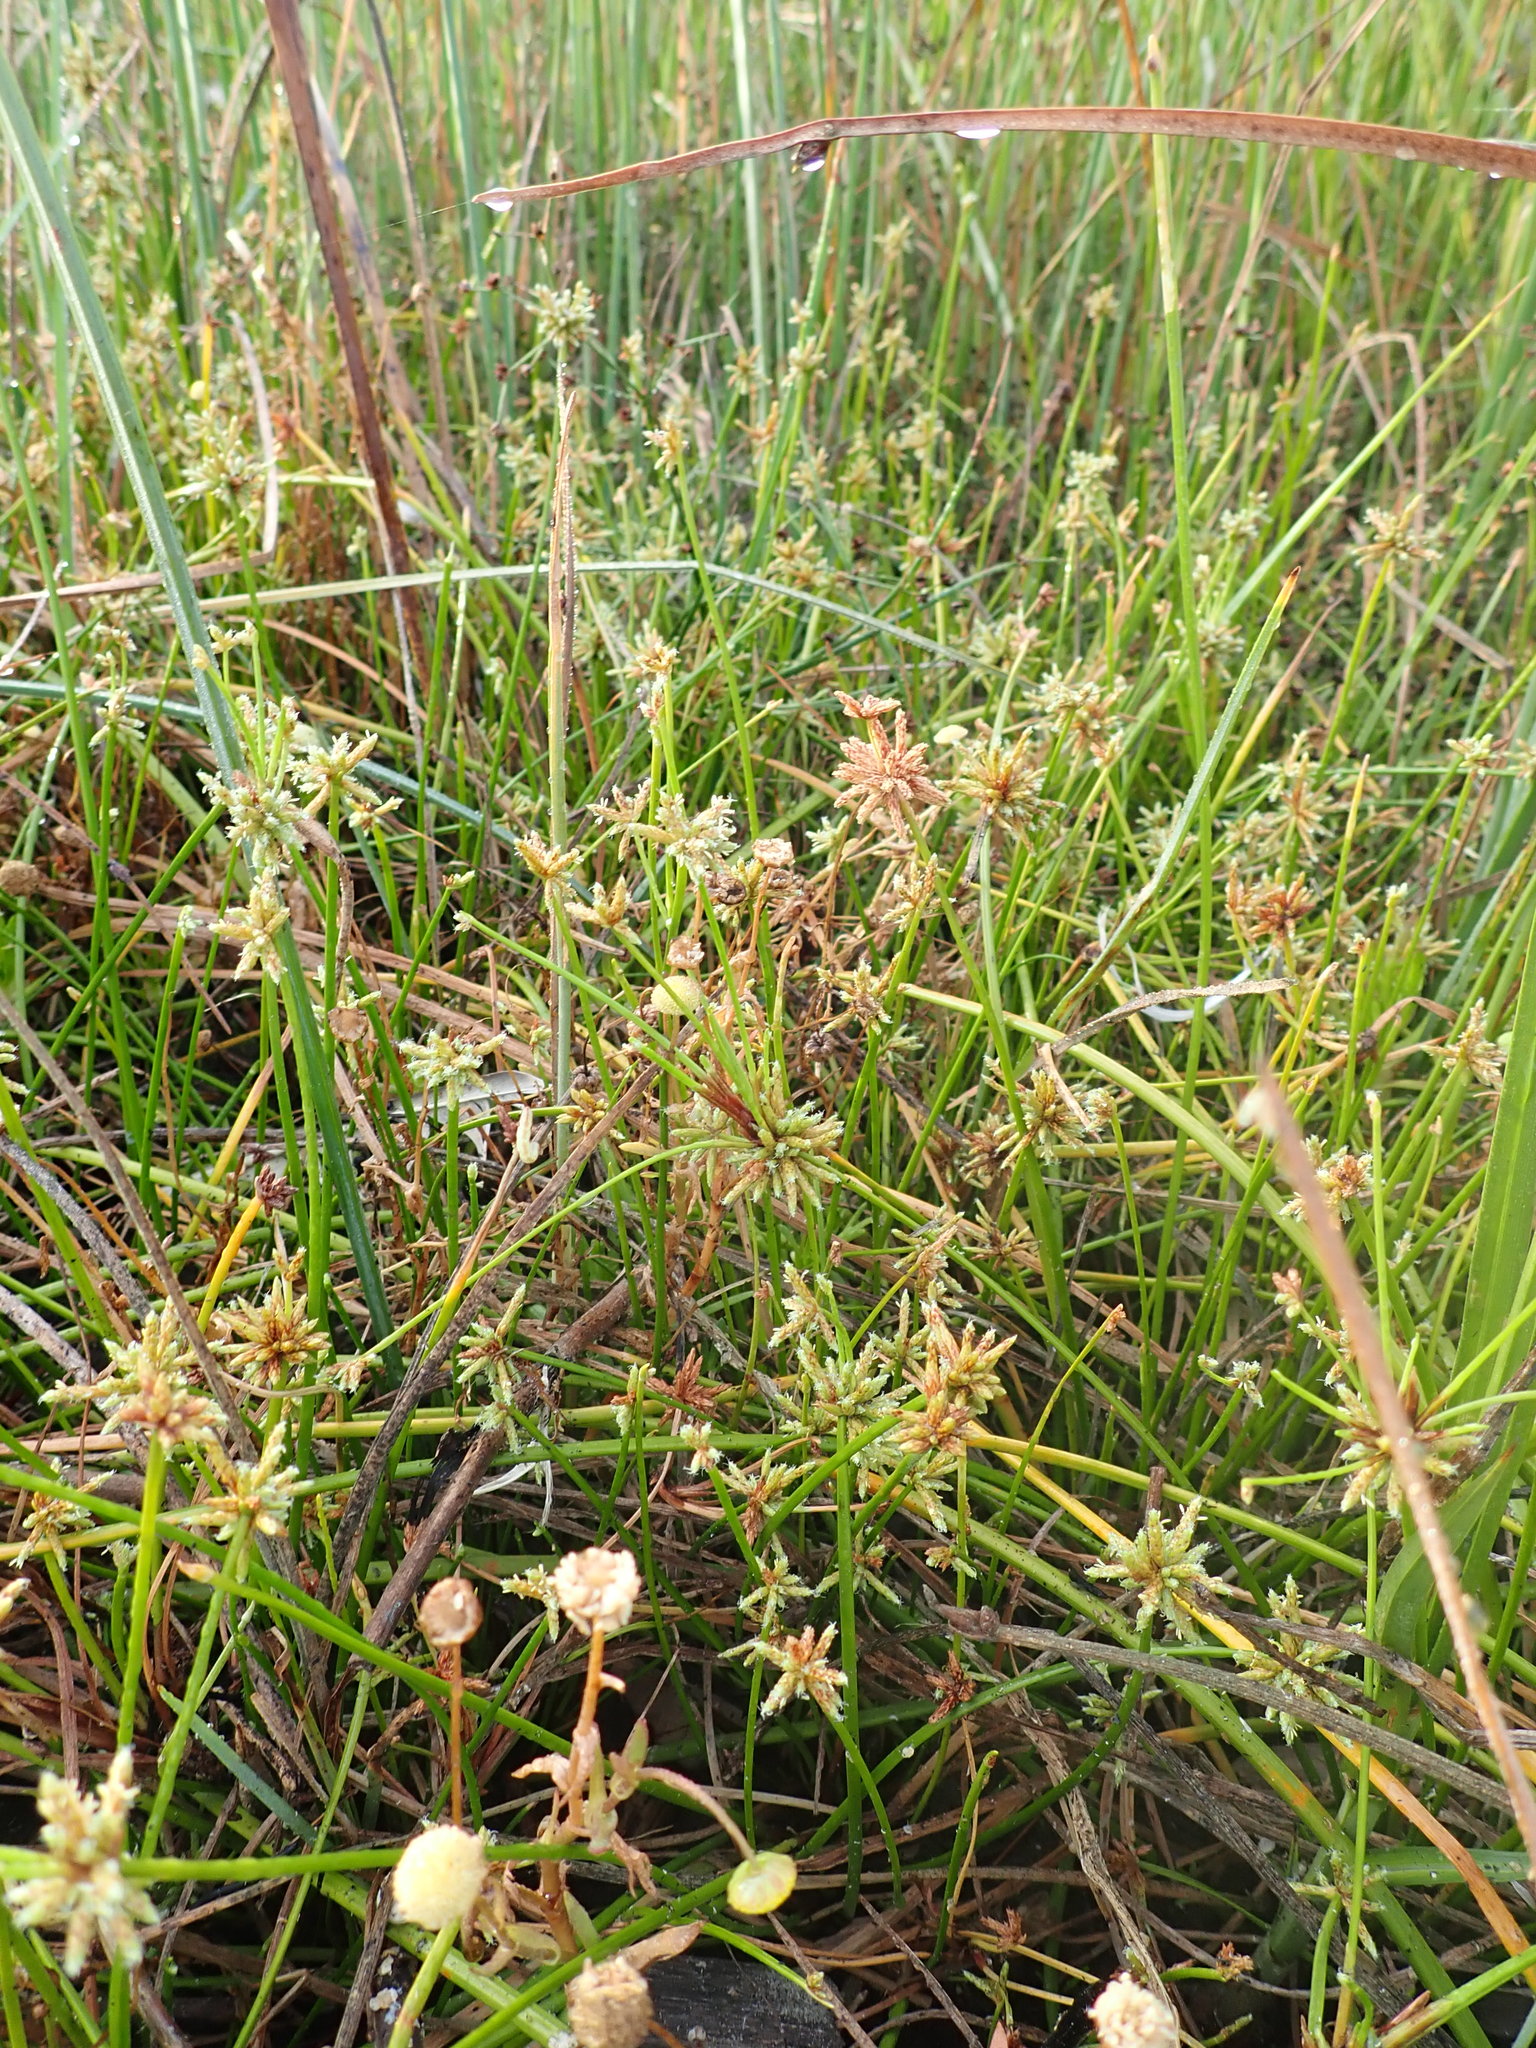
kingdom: Plantae
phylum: Tracheophyta
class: Liliopsida
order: Poales
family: Cyperaceae
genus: Isolepis
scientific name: Isolepis prolifera
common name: Proliferating bulrush
